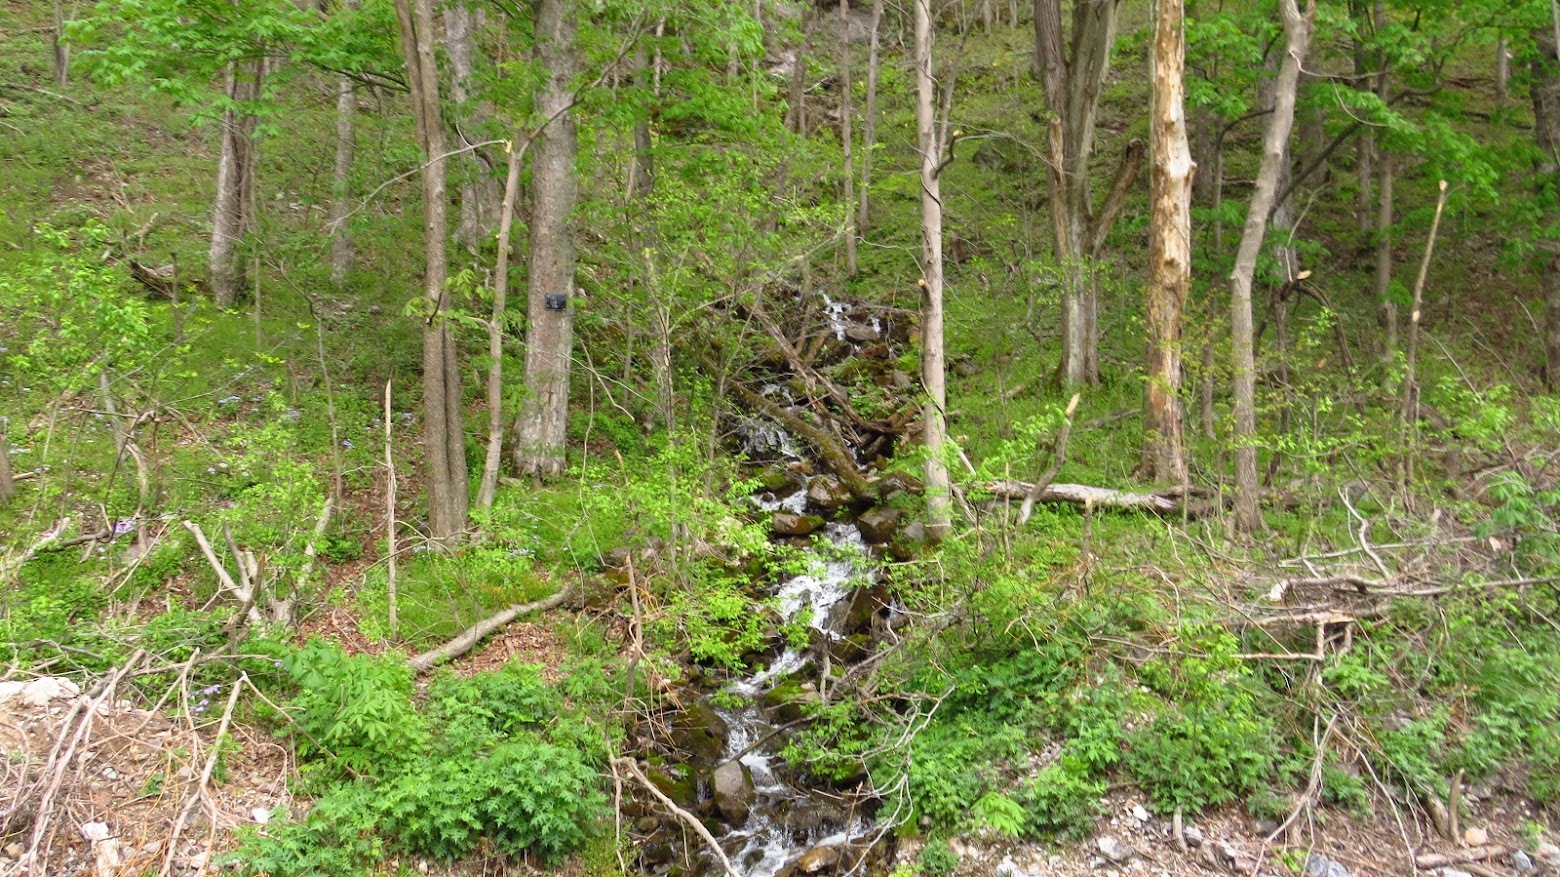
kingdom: Plantae
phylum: Tracheophyta
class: Magnoliopsida
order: Asterales
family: Asteraceae
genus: Polymnia
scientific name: Polymnia canadensis
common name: Pale-flowered leafcup
